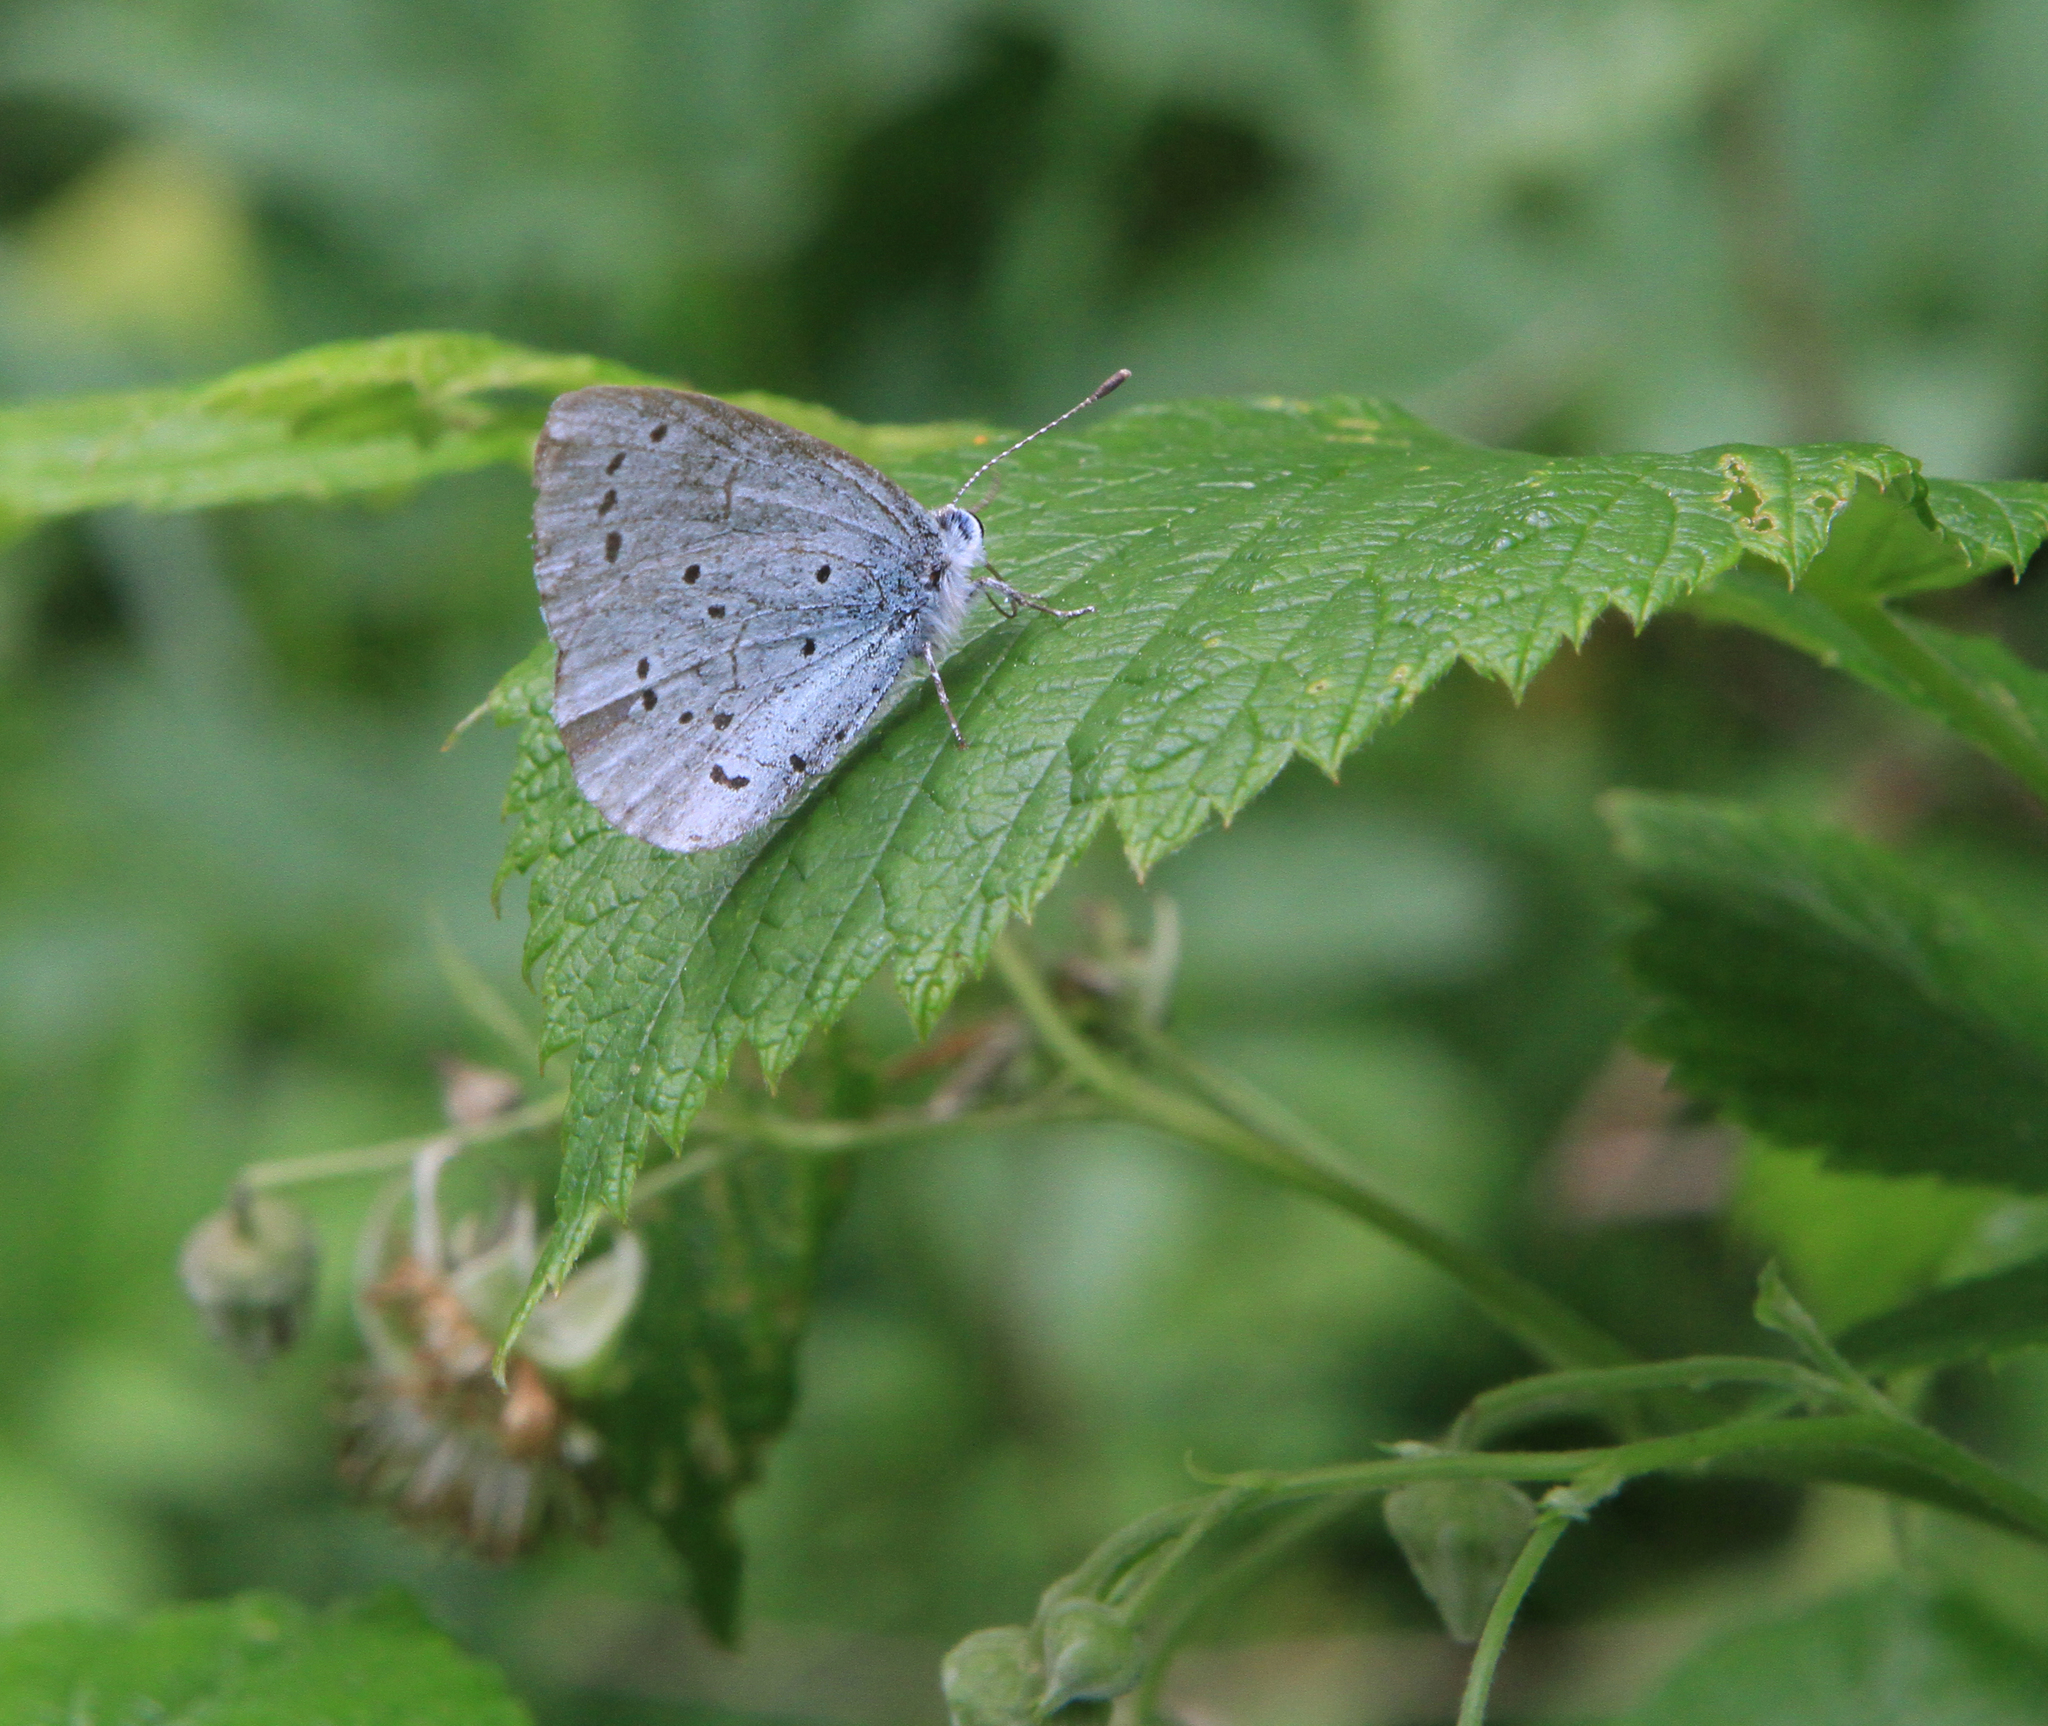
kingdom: Animalia
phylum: Arthropoda
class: Insecta
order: Lepidoptera
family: Lycaenidae
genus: Celastrina
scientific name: Celastrina argiolus
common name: Holly blue
